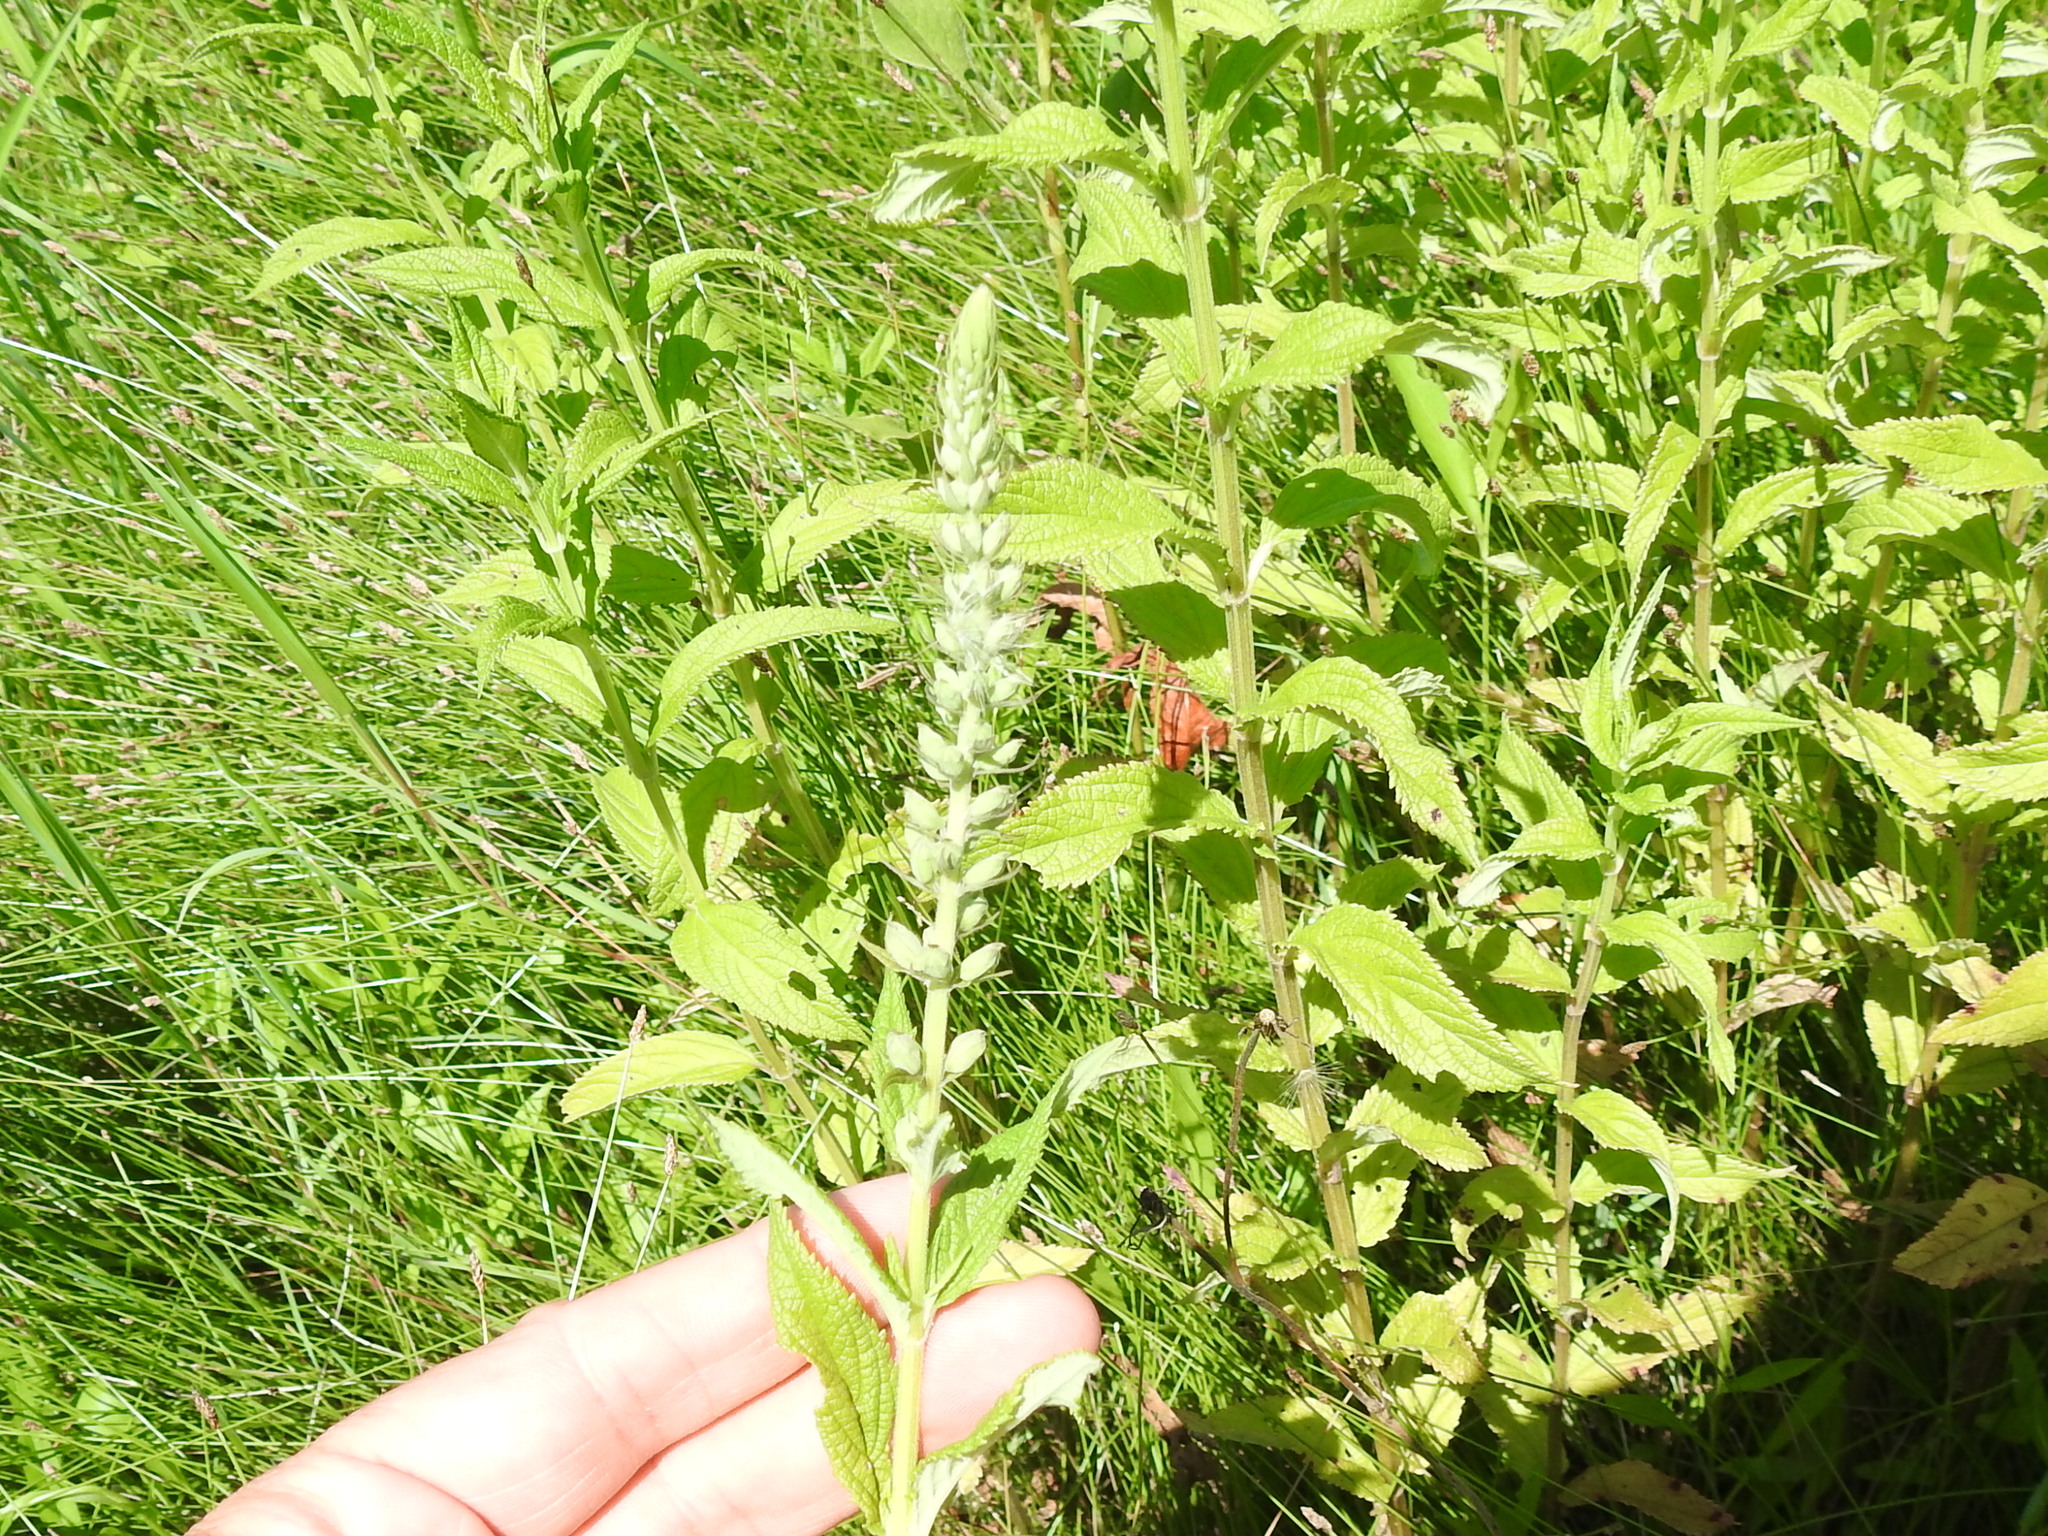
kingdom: Plantae
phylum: Tracheophyta
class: Magnoliopsida
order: Lamiales
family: Lamiaceae
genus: Teucrium
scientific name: Teucrium canadense
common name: American germander
